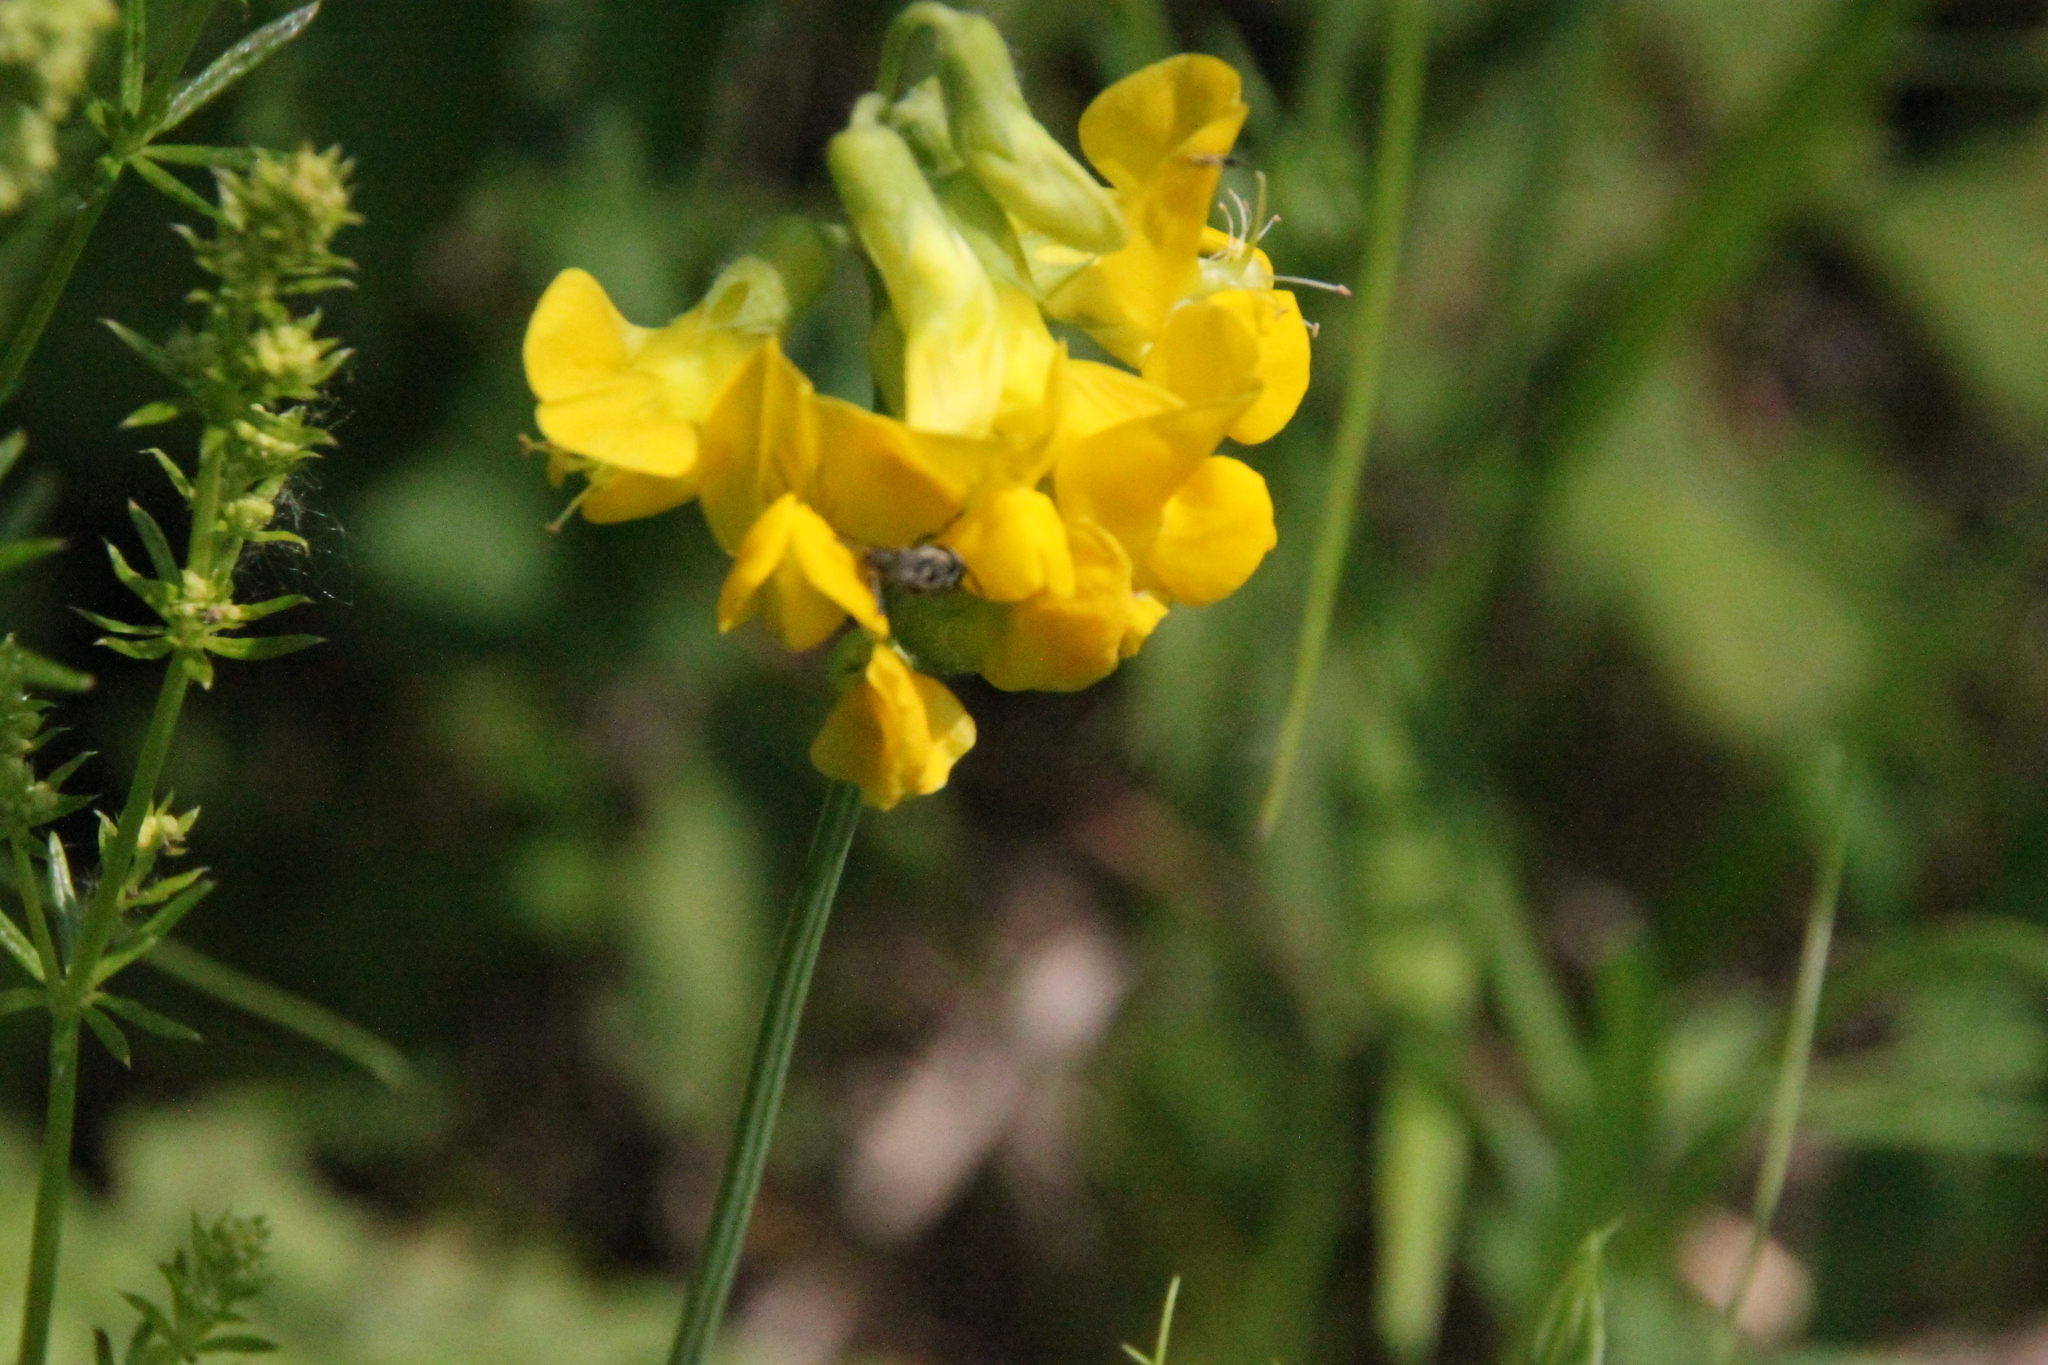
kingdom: Plantae
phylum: Tracheophyta
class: Magnoliopsida
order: Fabales
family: Fabaceae
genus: Lathyrus
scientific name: Lathyrus pratensis
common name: Meadow vetchling
